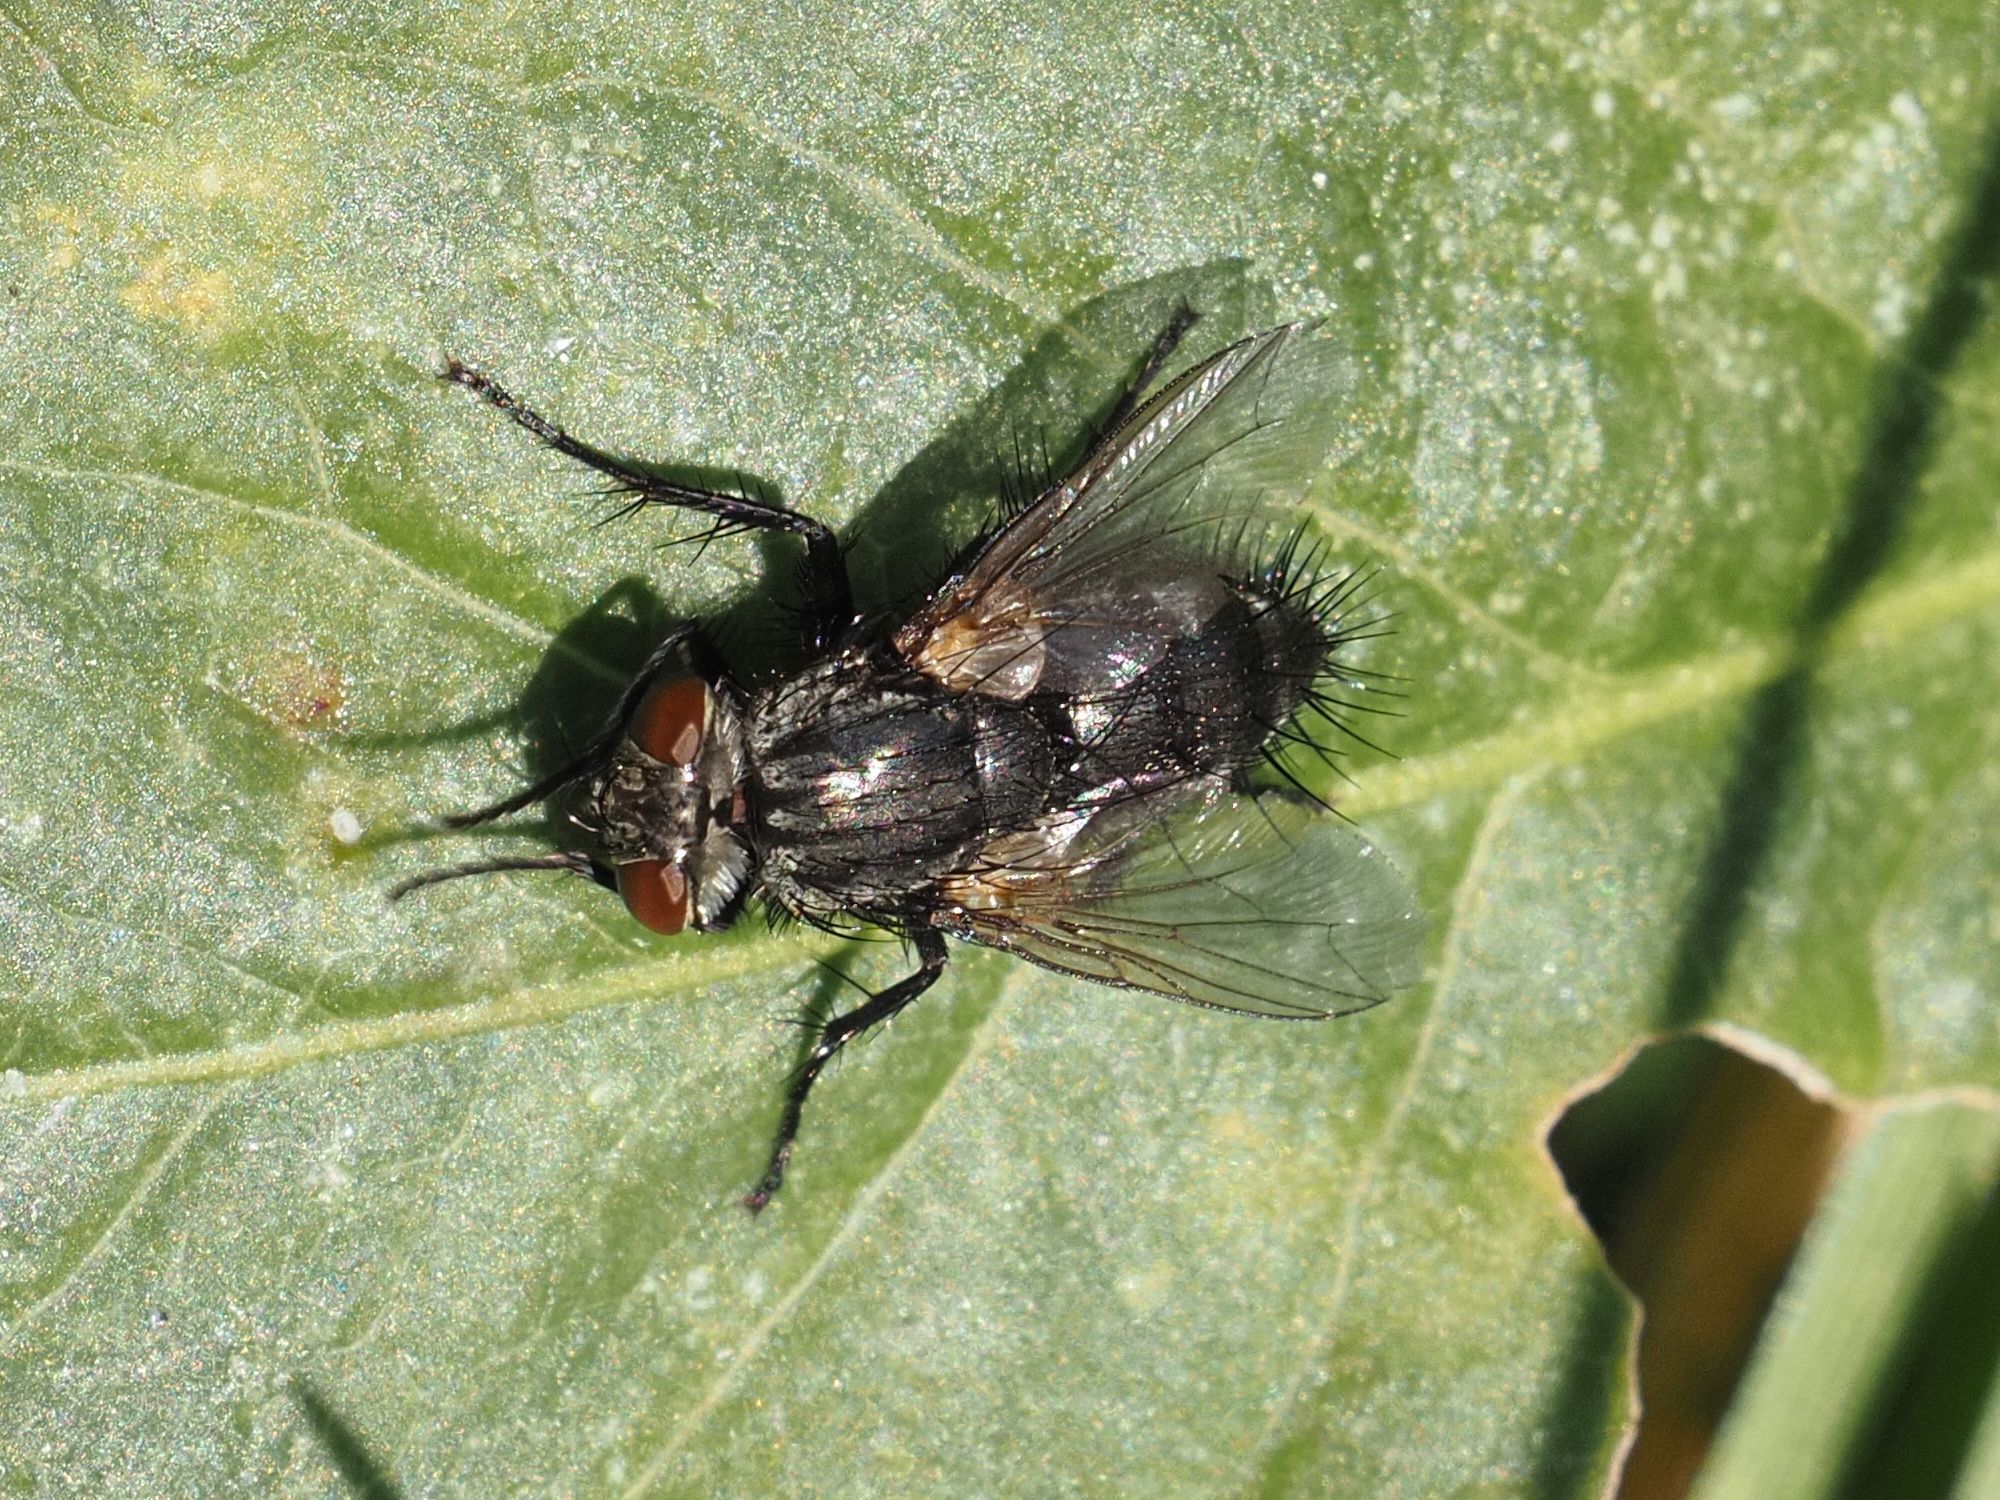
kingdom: Animalia
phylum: Arthropoda
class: Insecta
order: Diptera
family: Tachinidae
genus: Voria
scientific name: Voria ruralis
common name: Parasitic fly
